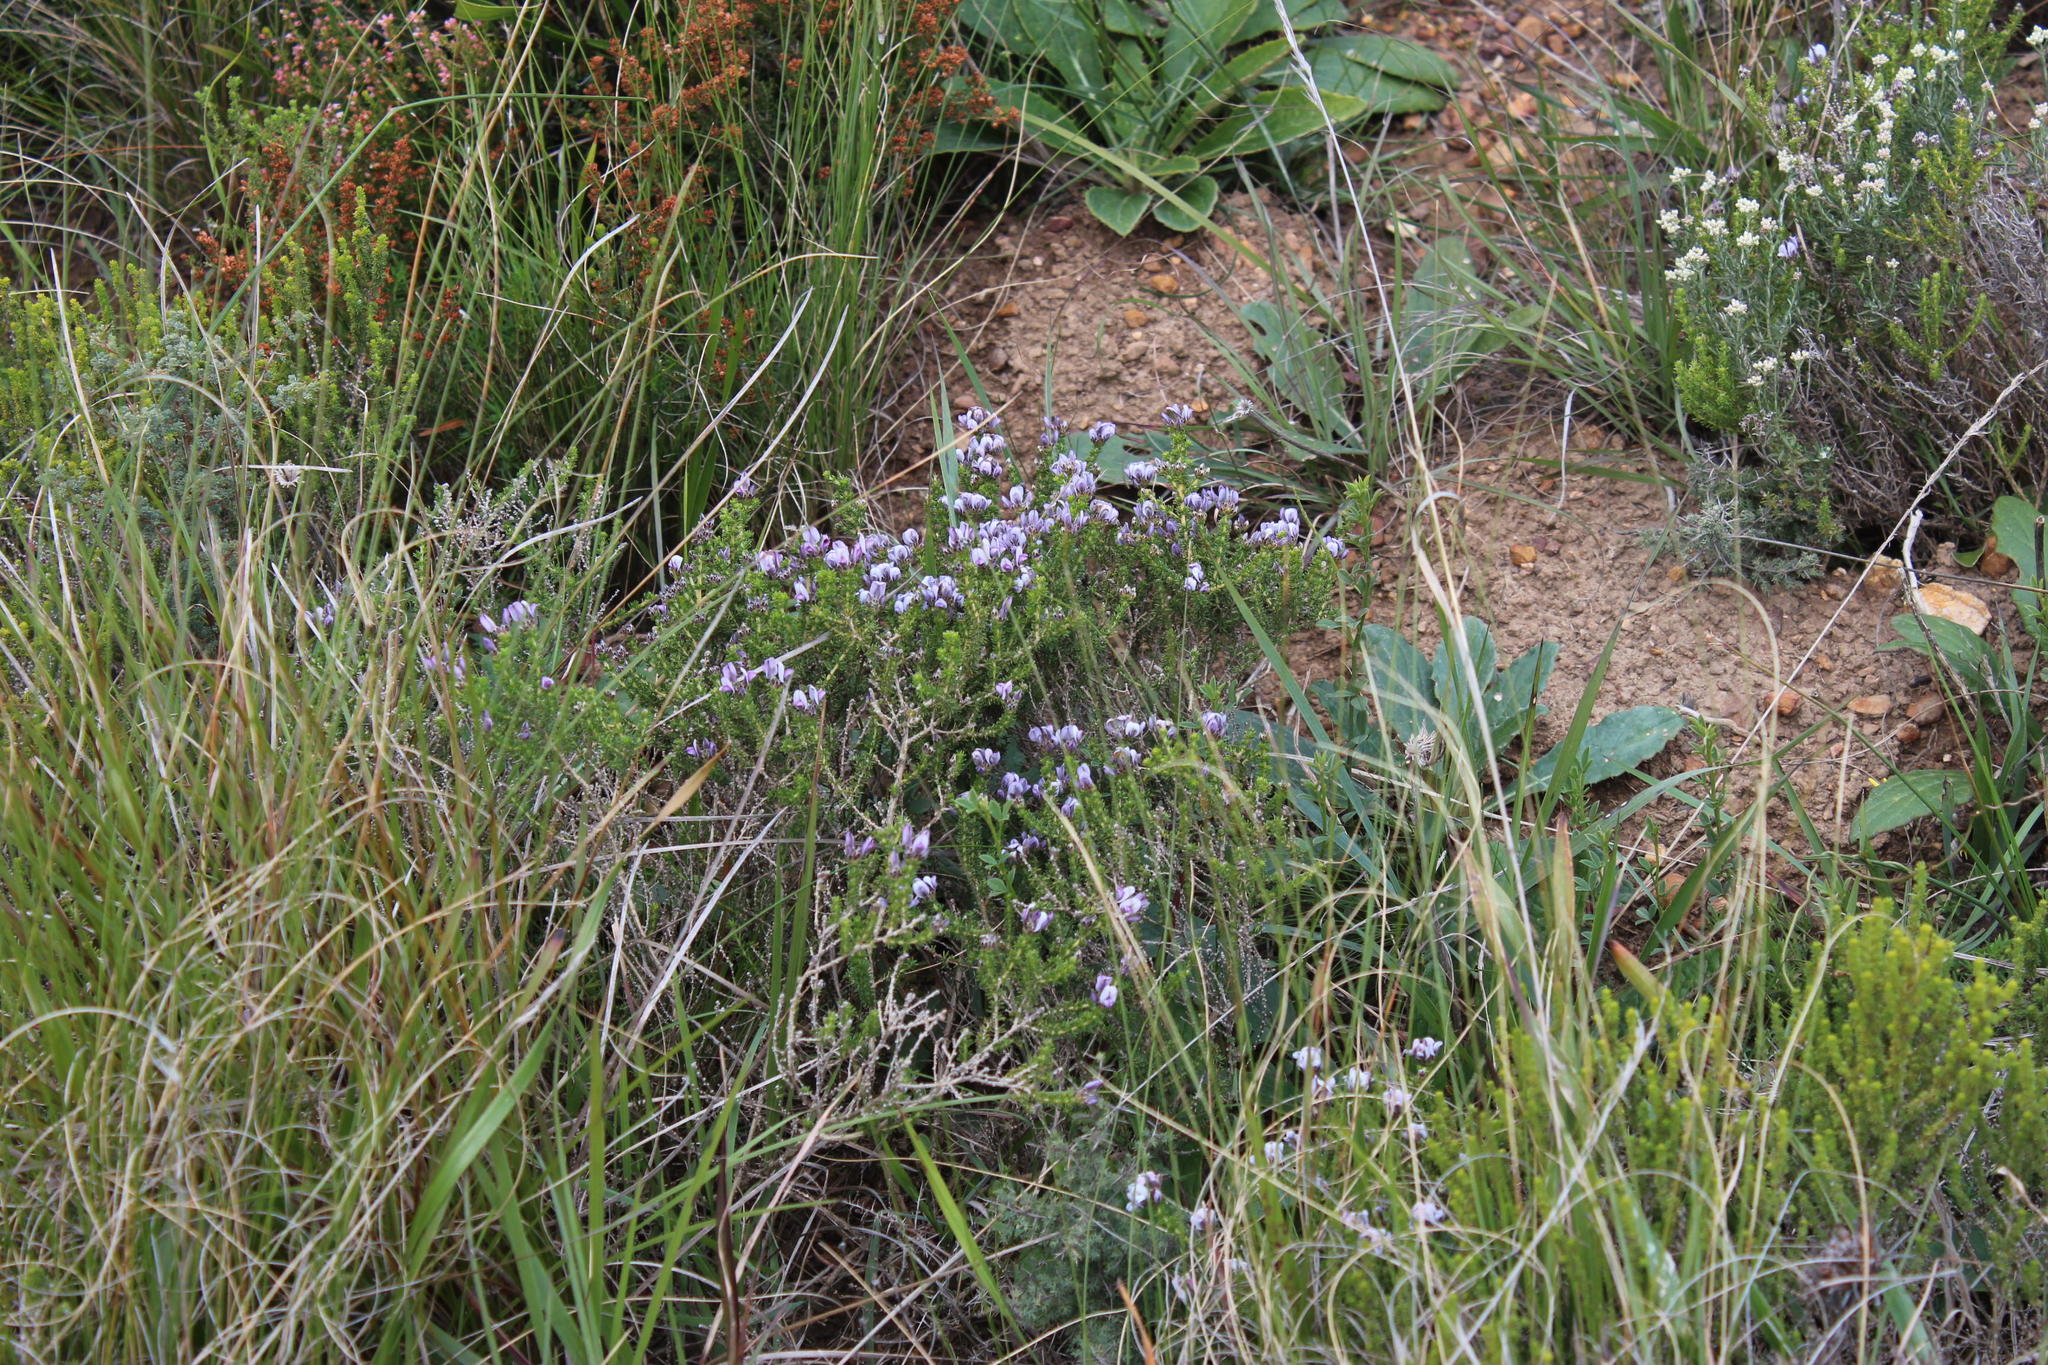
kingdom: Plantae
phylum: Tracheophyta
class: Magnoliopsida
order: Fabales
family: Fabaceae
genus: Aspalathus
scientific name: Aspalathus nigra
